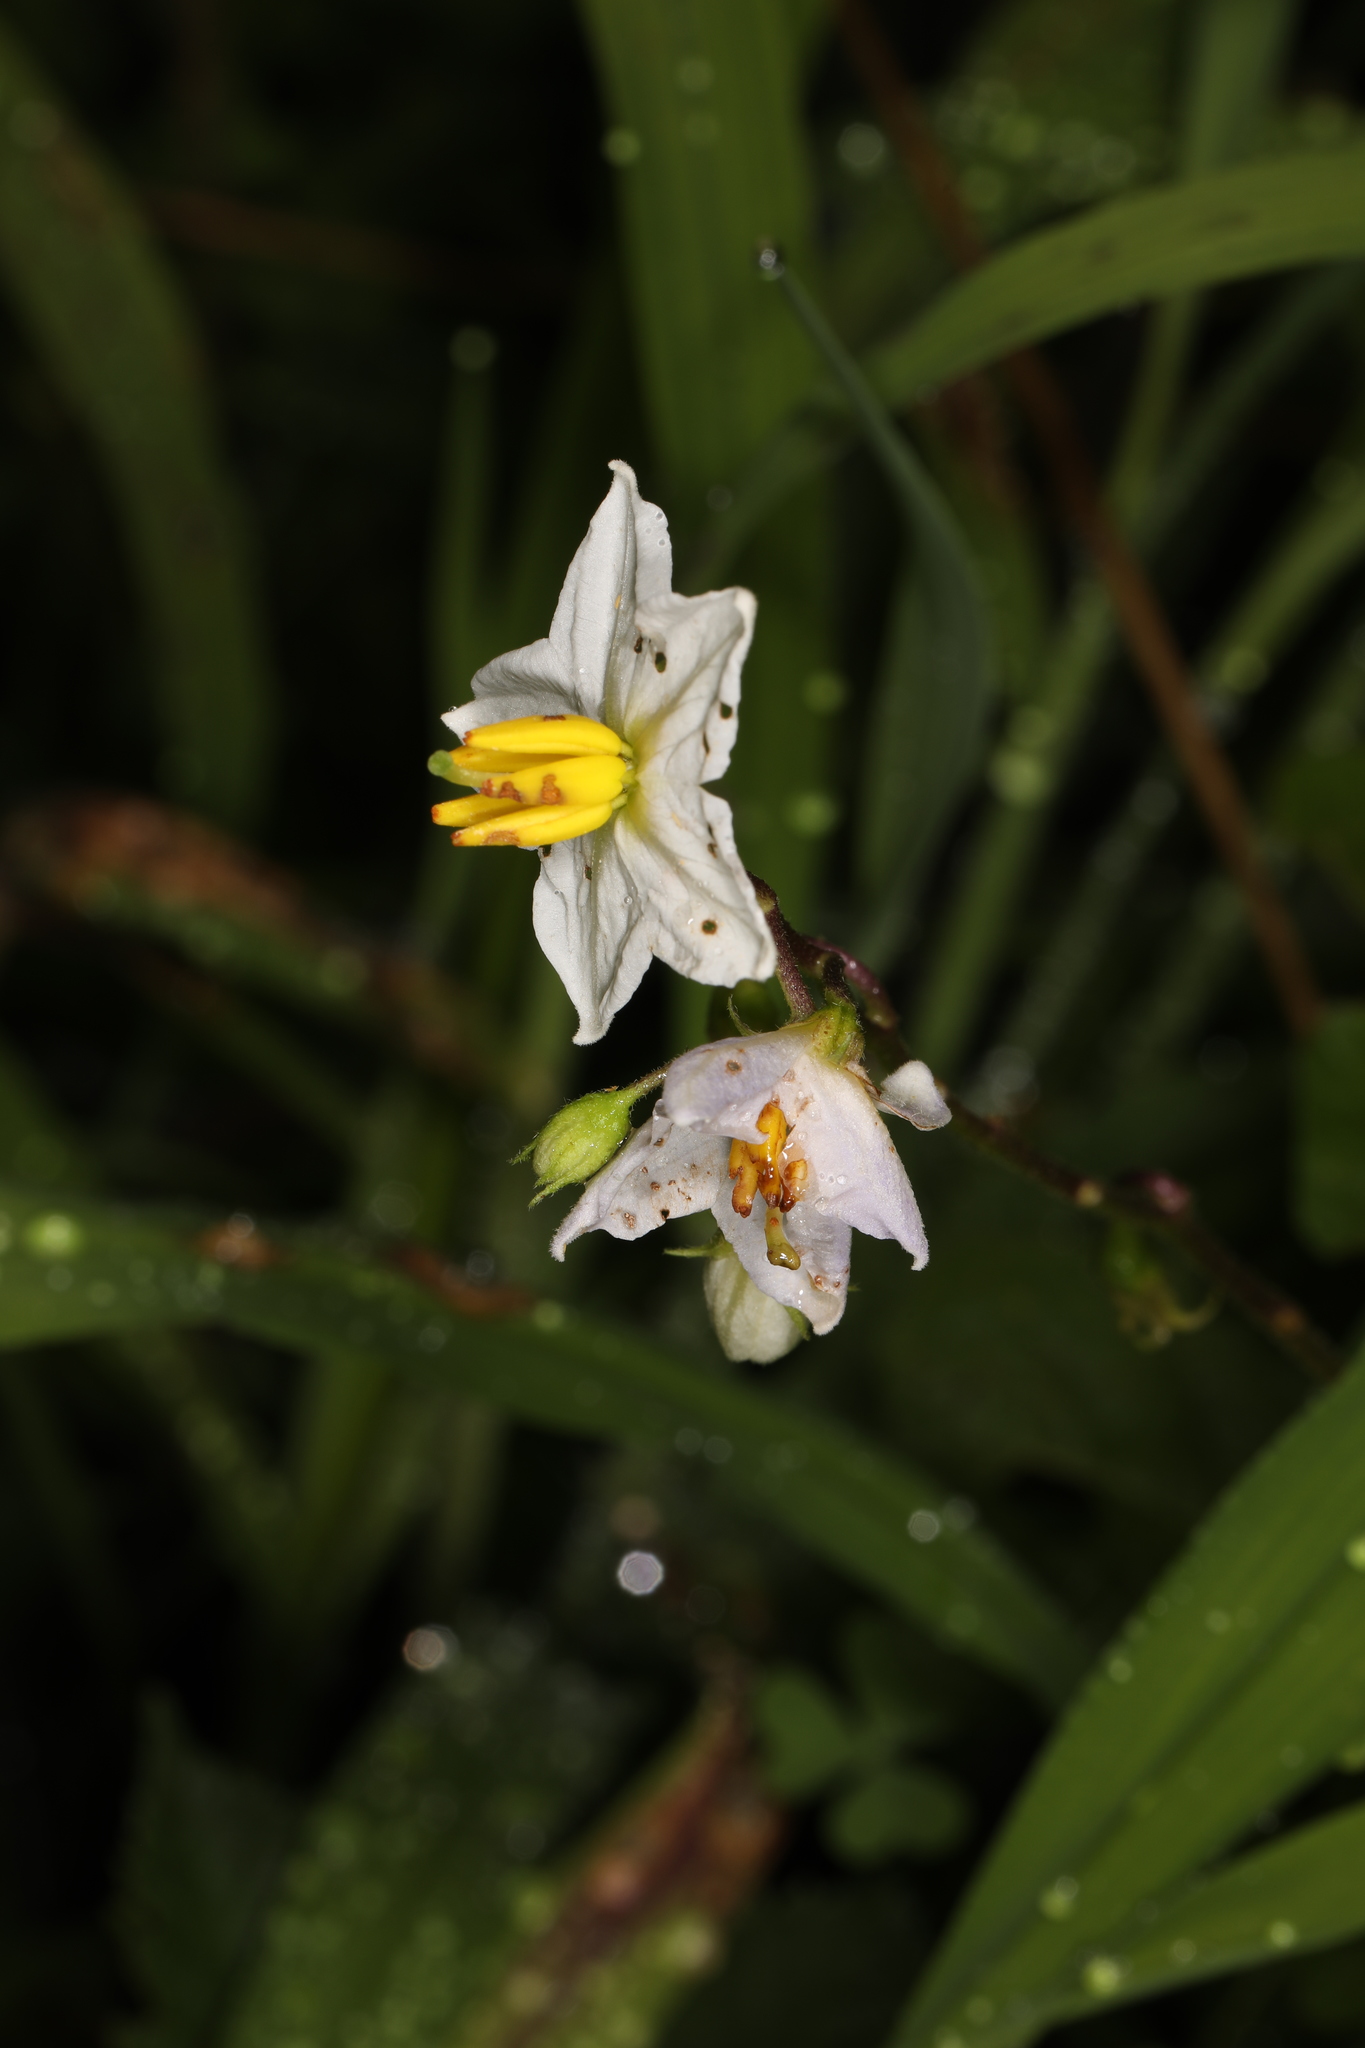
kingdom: Plantae
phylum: Tracheophyta
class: Magnoliopsida
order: Solanales
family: Solanaceae
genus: Solanum
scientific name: Solanum carolinense
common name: Horse-nettle
